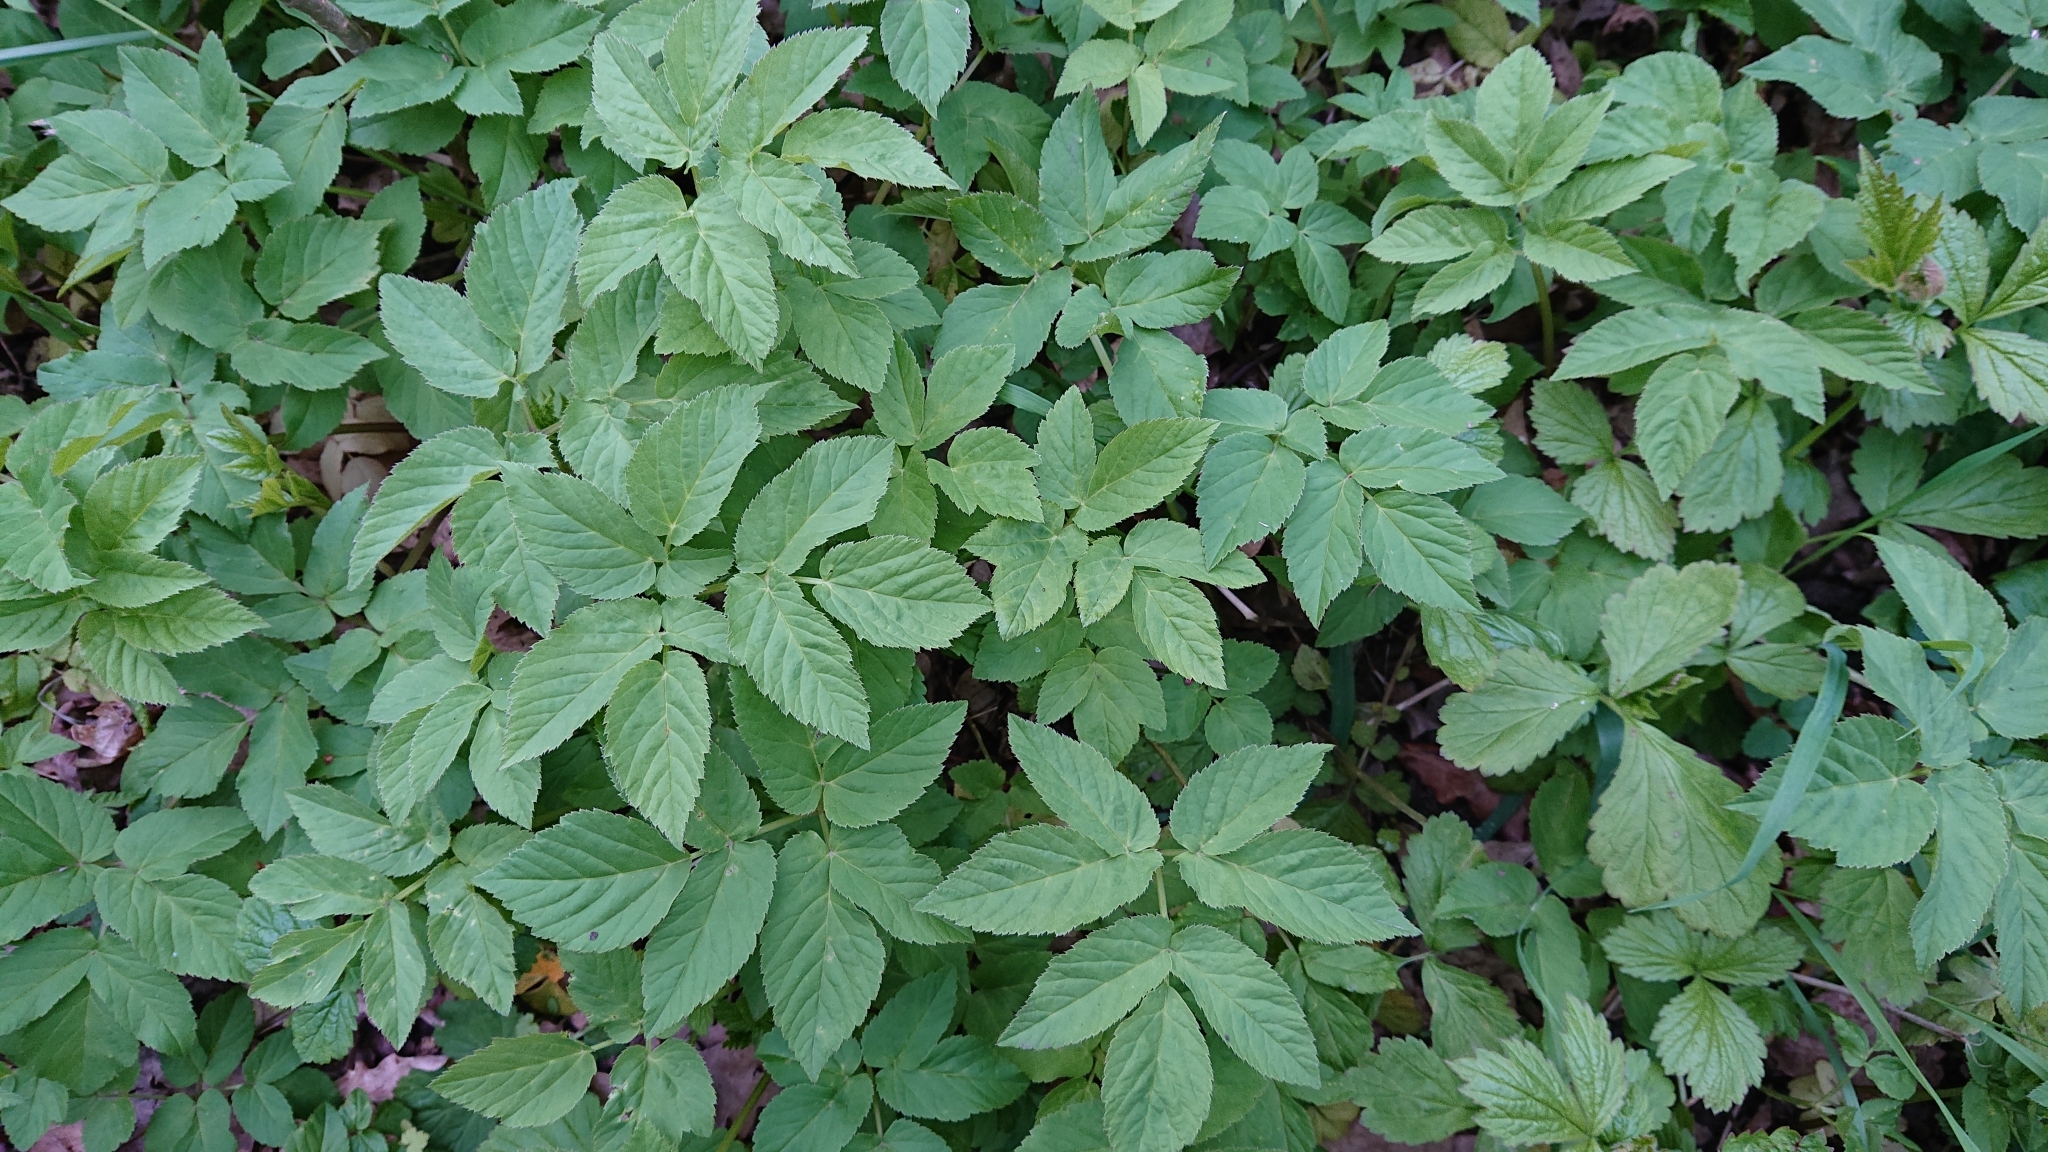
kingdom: Plantae
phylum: Tracheophyta
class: Magnoliopsida
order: Apiales
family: Apiaceae
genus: Aegopodium
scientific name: Aegopodium podagraria
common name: Ground-elder
